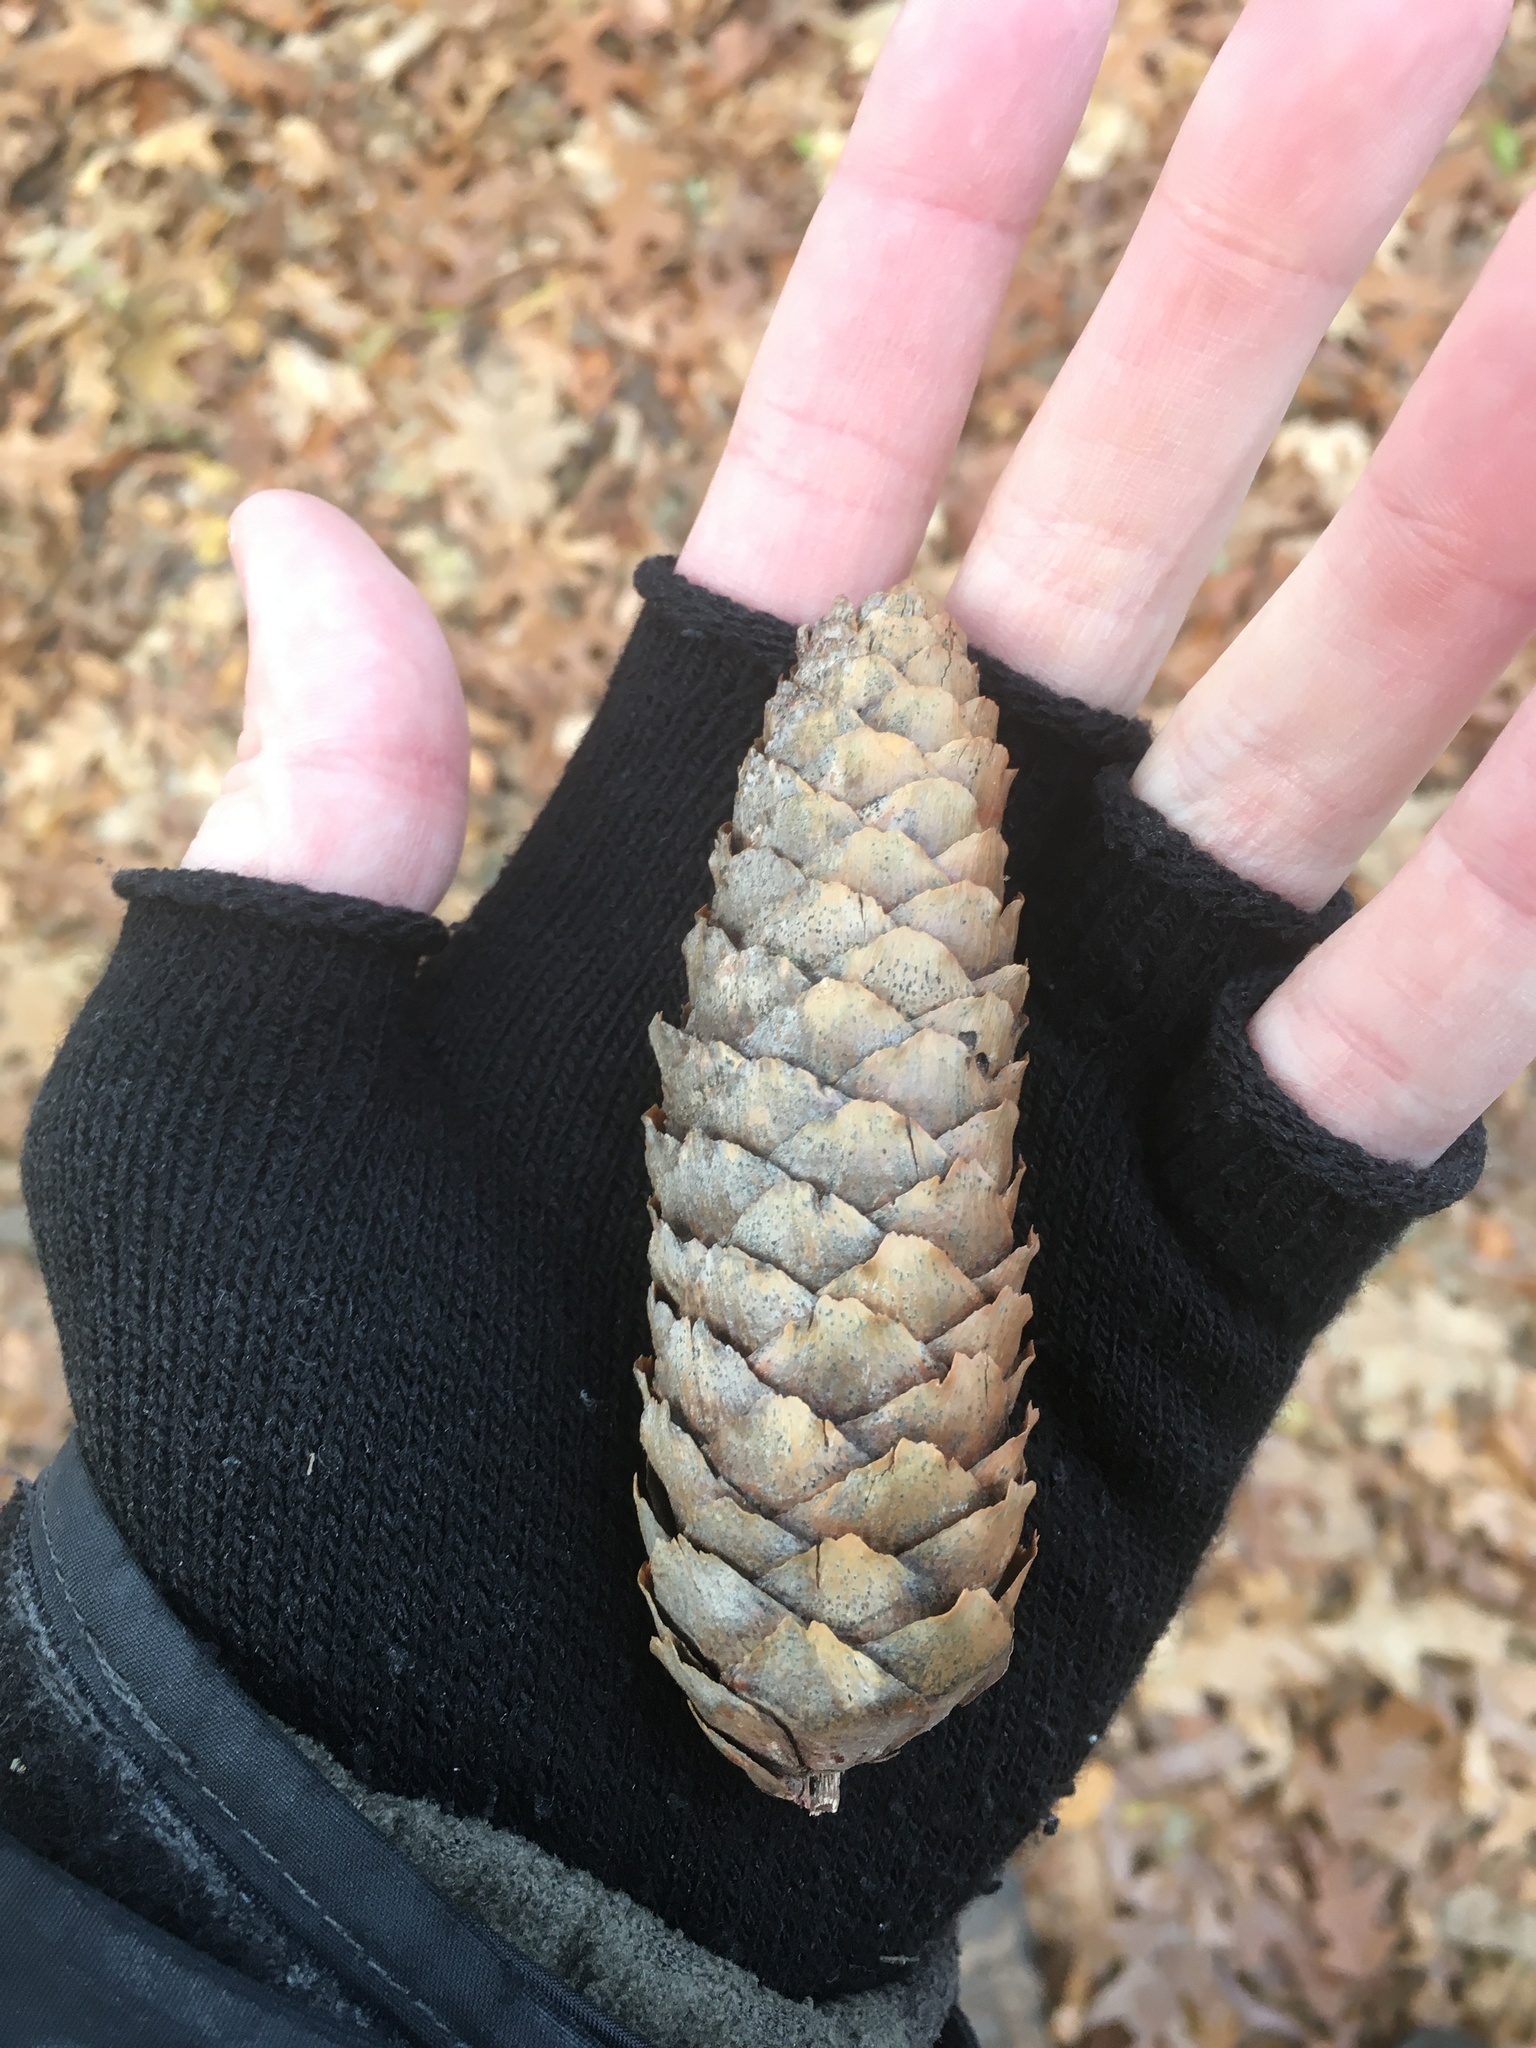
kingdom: Plantae
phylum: Tracheophyta
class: Pinopsida
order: Pinales
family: Pinaceae
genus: Picea
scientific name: Picea abies
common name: Norway spruce
